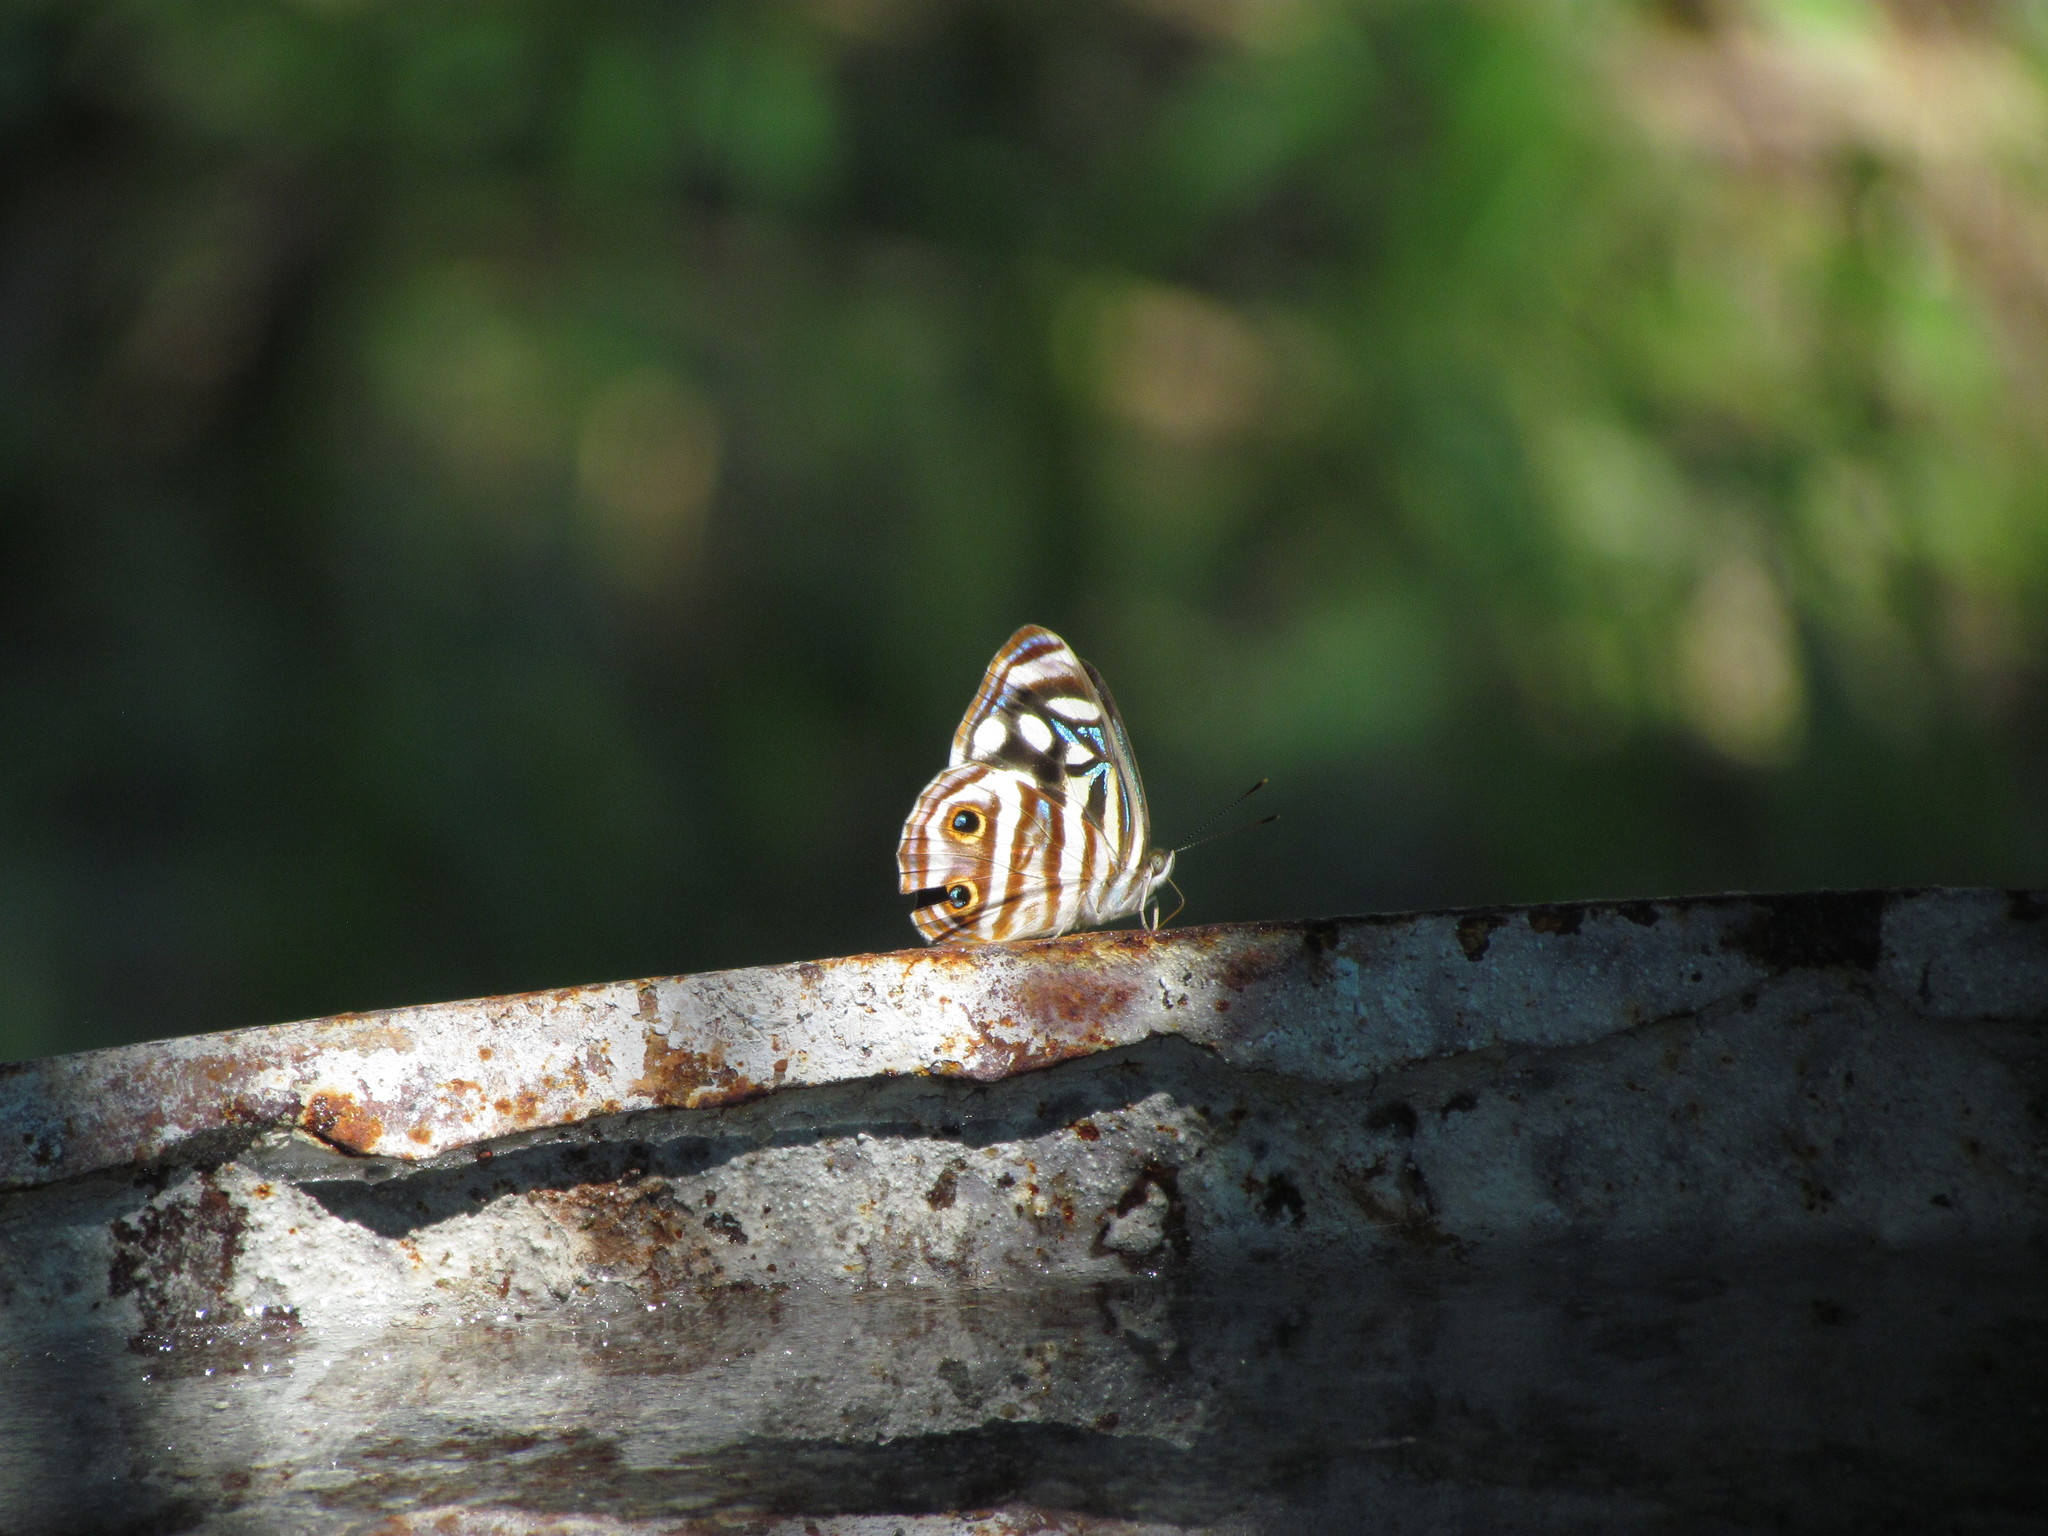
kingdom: Animalia
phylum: Arthropoda
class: Insecta
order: Lepidoptera
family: Nymphalidae
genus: Dynamine
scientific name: Dynamine mylitta
